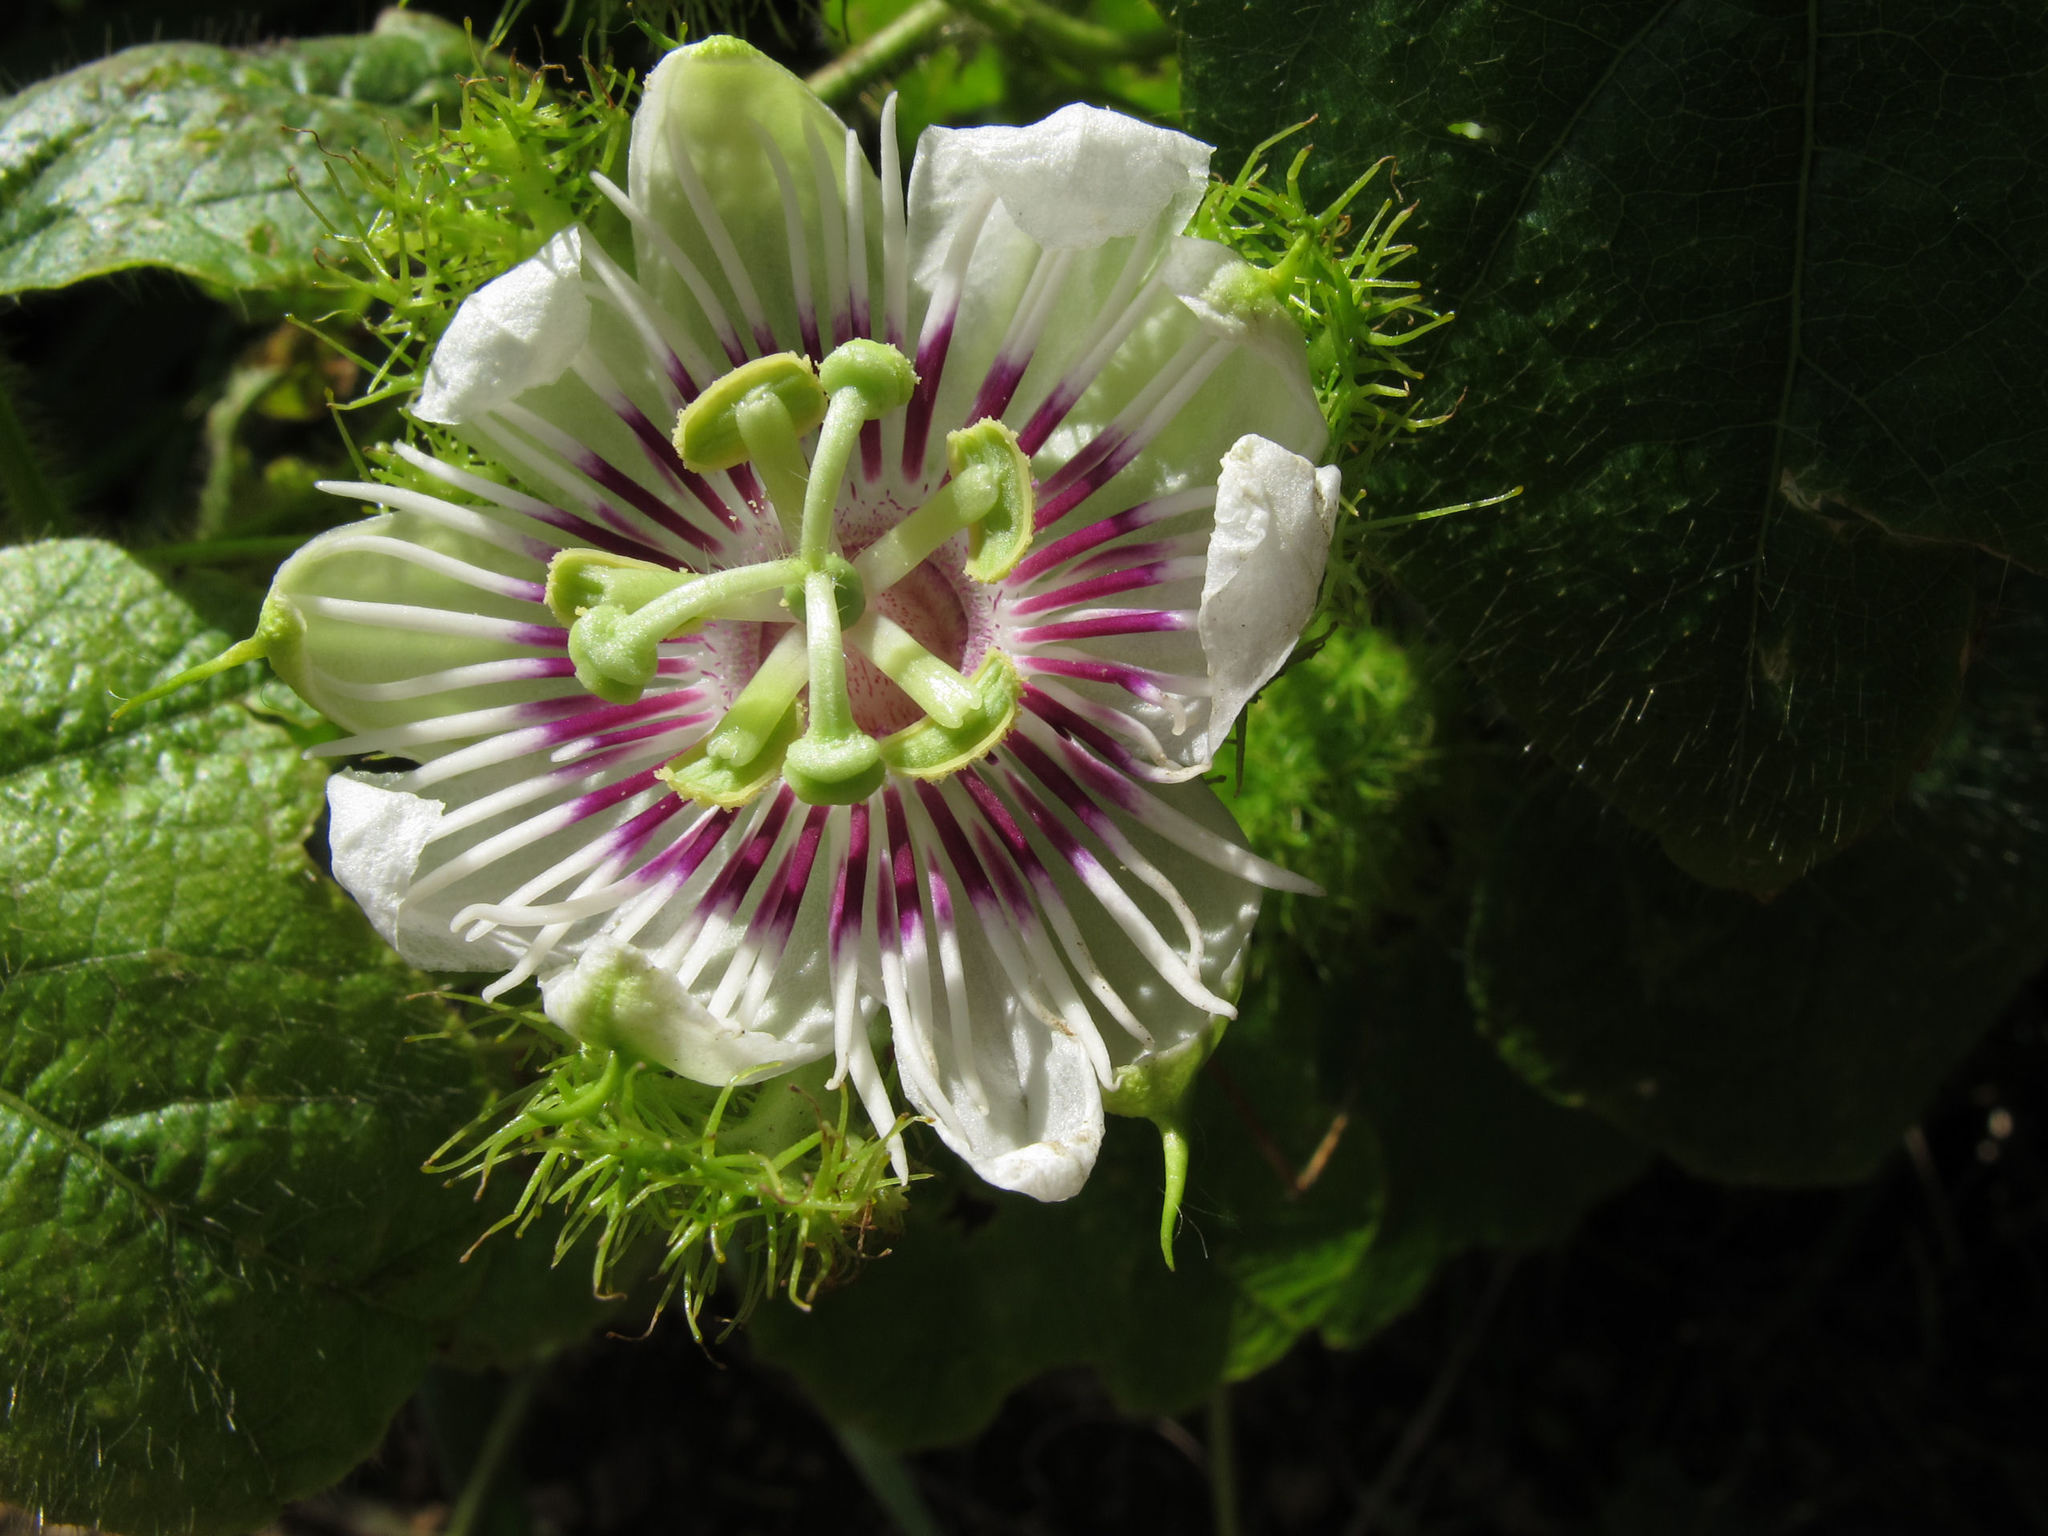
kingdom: Plantae
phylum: Tracheophyta
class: Magnoliopsida
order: Malpighiales
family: Passifloraceae
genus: Passiflora
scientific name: Passiflora foetida
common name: Fetid passionflower
